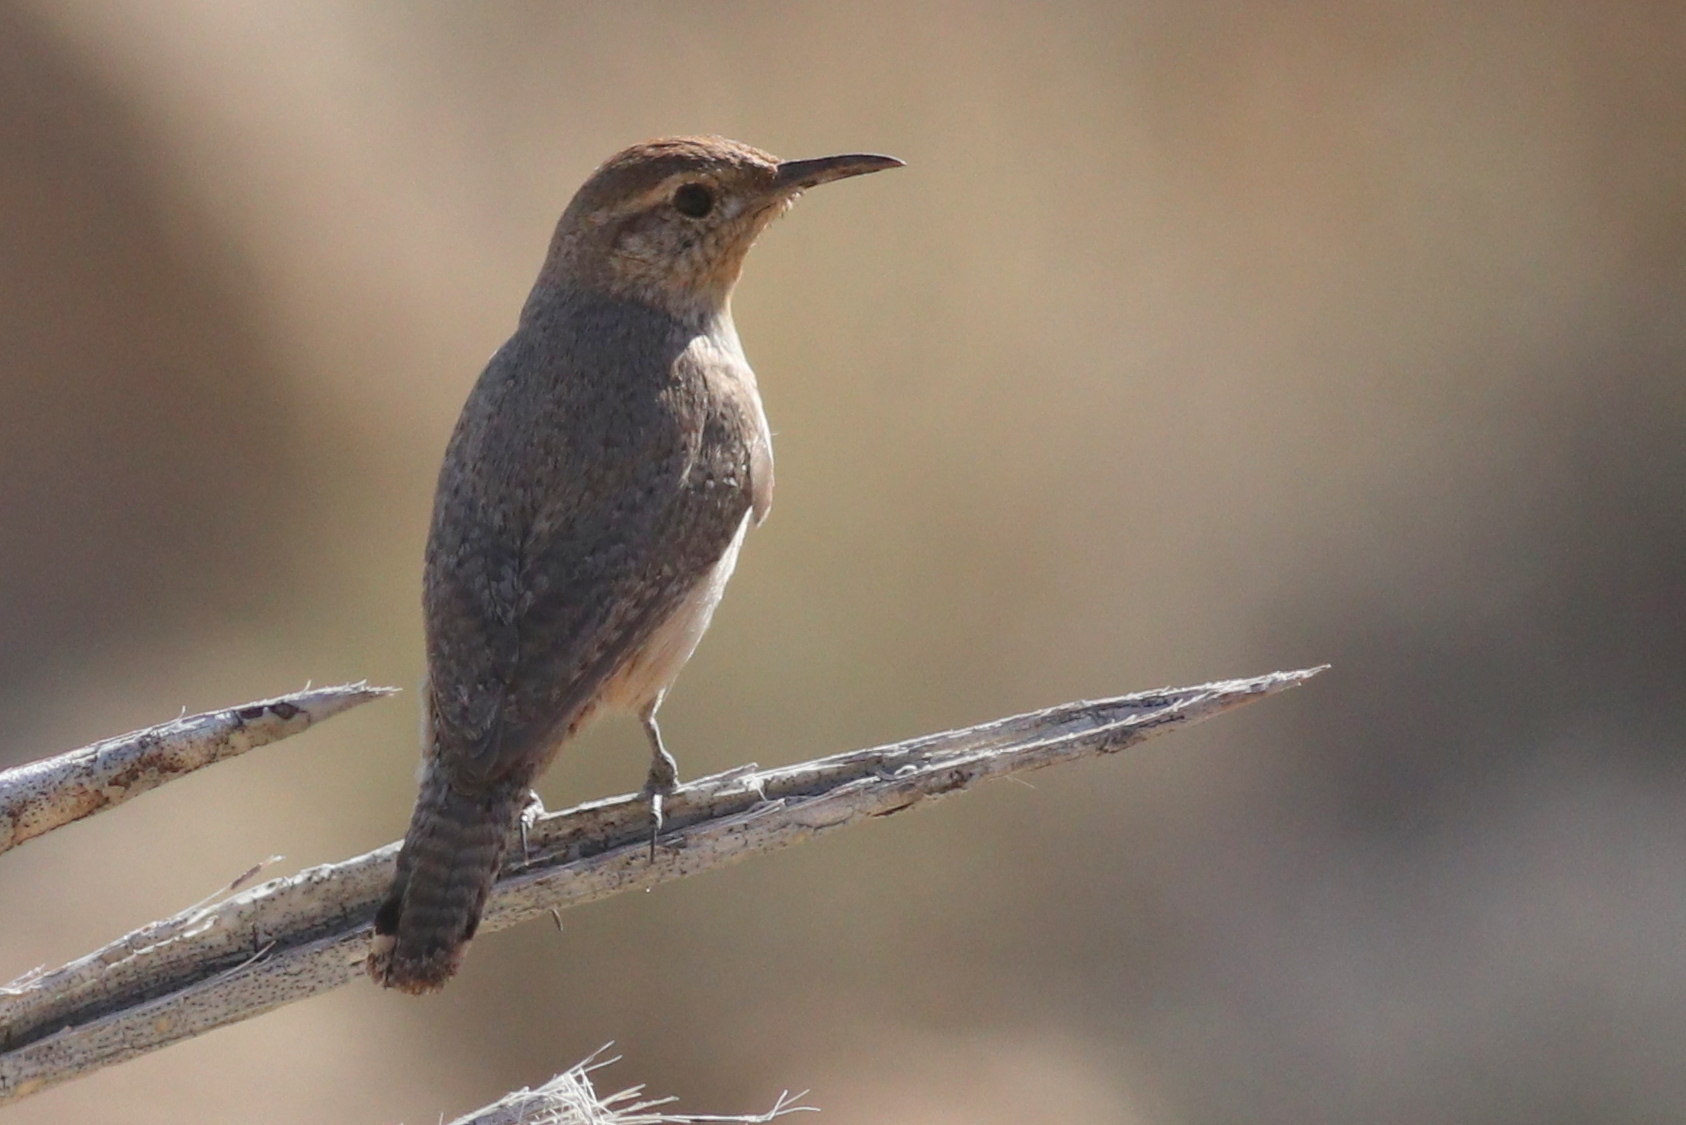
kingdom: Animalia
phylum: Chordata
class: Aves
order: Passeriformes
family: Troglodytidae
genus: Salpinctes
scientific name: Salpinctes obsoletus
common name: Rock wren
